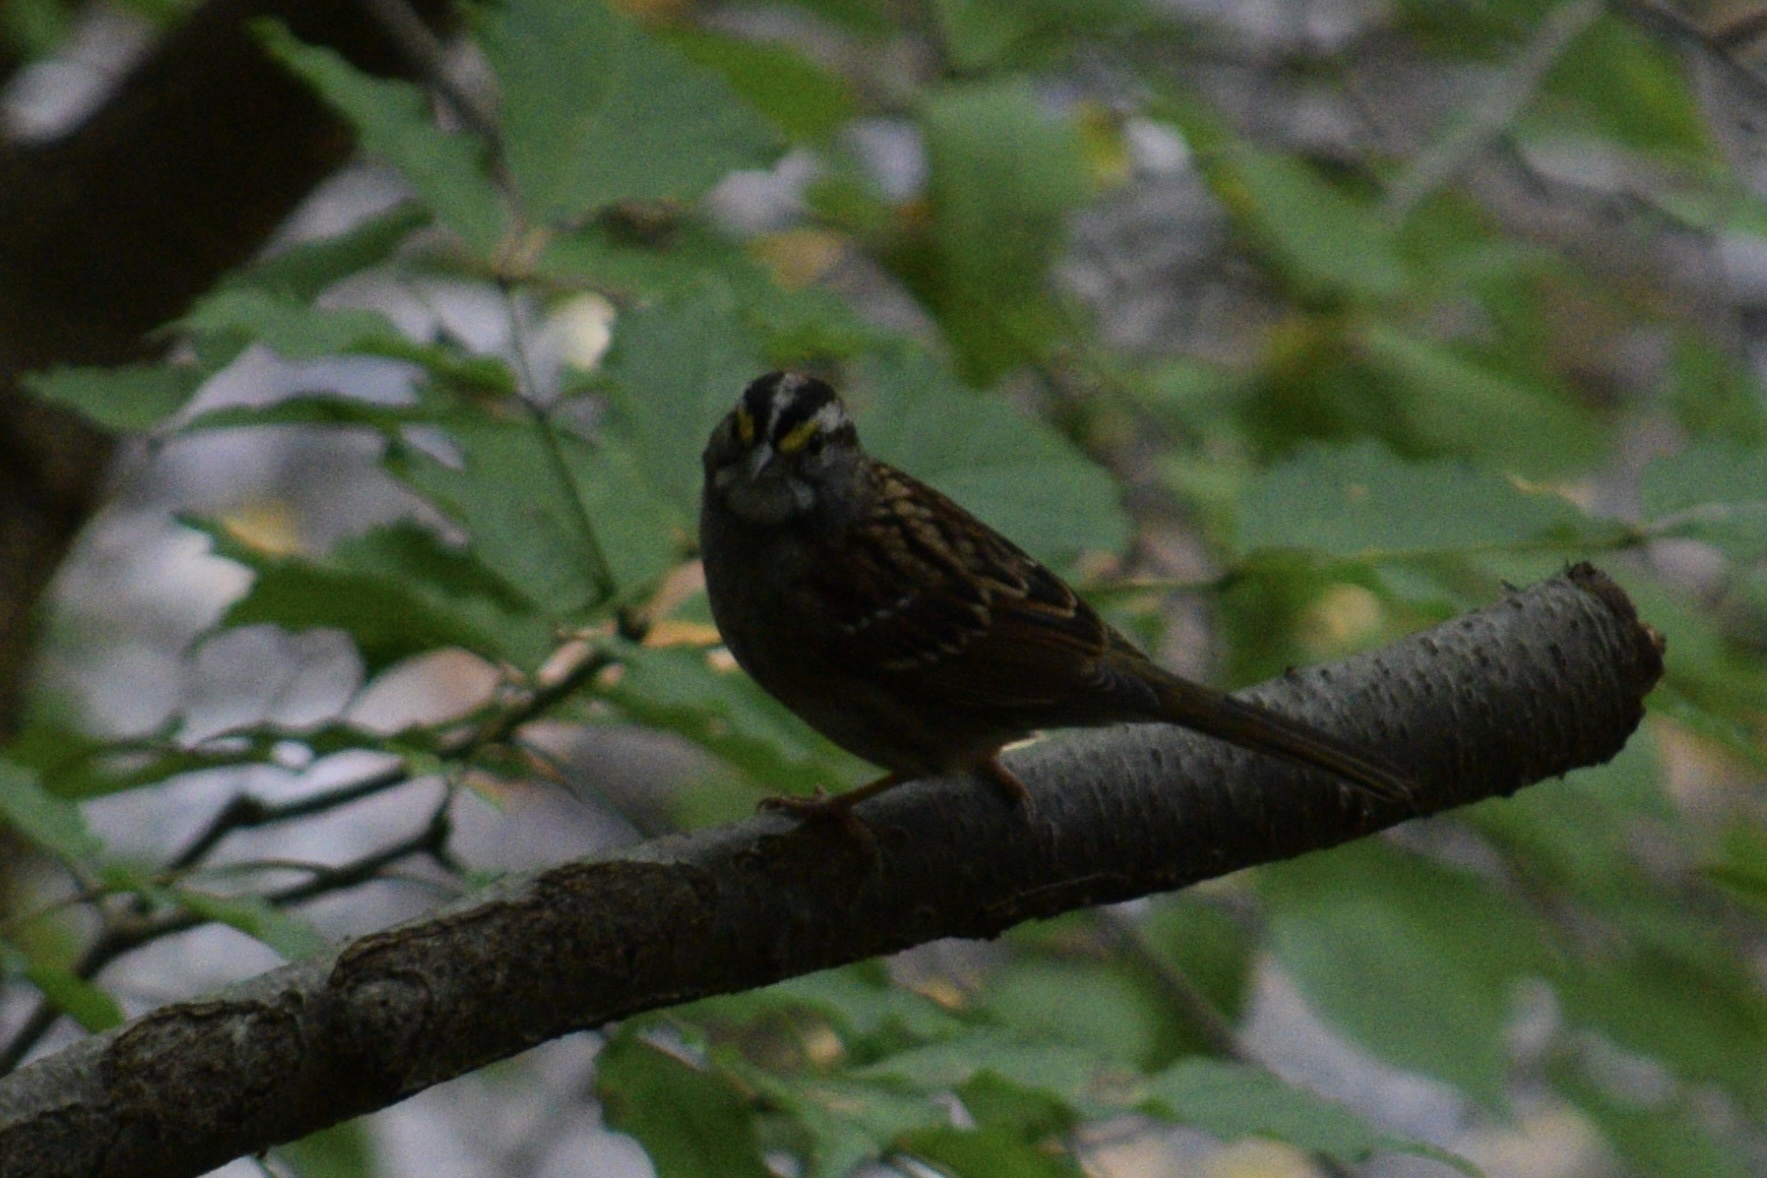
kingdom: Animalia
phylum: Chordata
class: Aves
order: Passeriformes
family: Passerellidae
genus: Zonotrichia
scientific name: Zonotrichia albicollis
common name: White-throated sparrow
